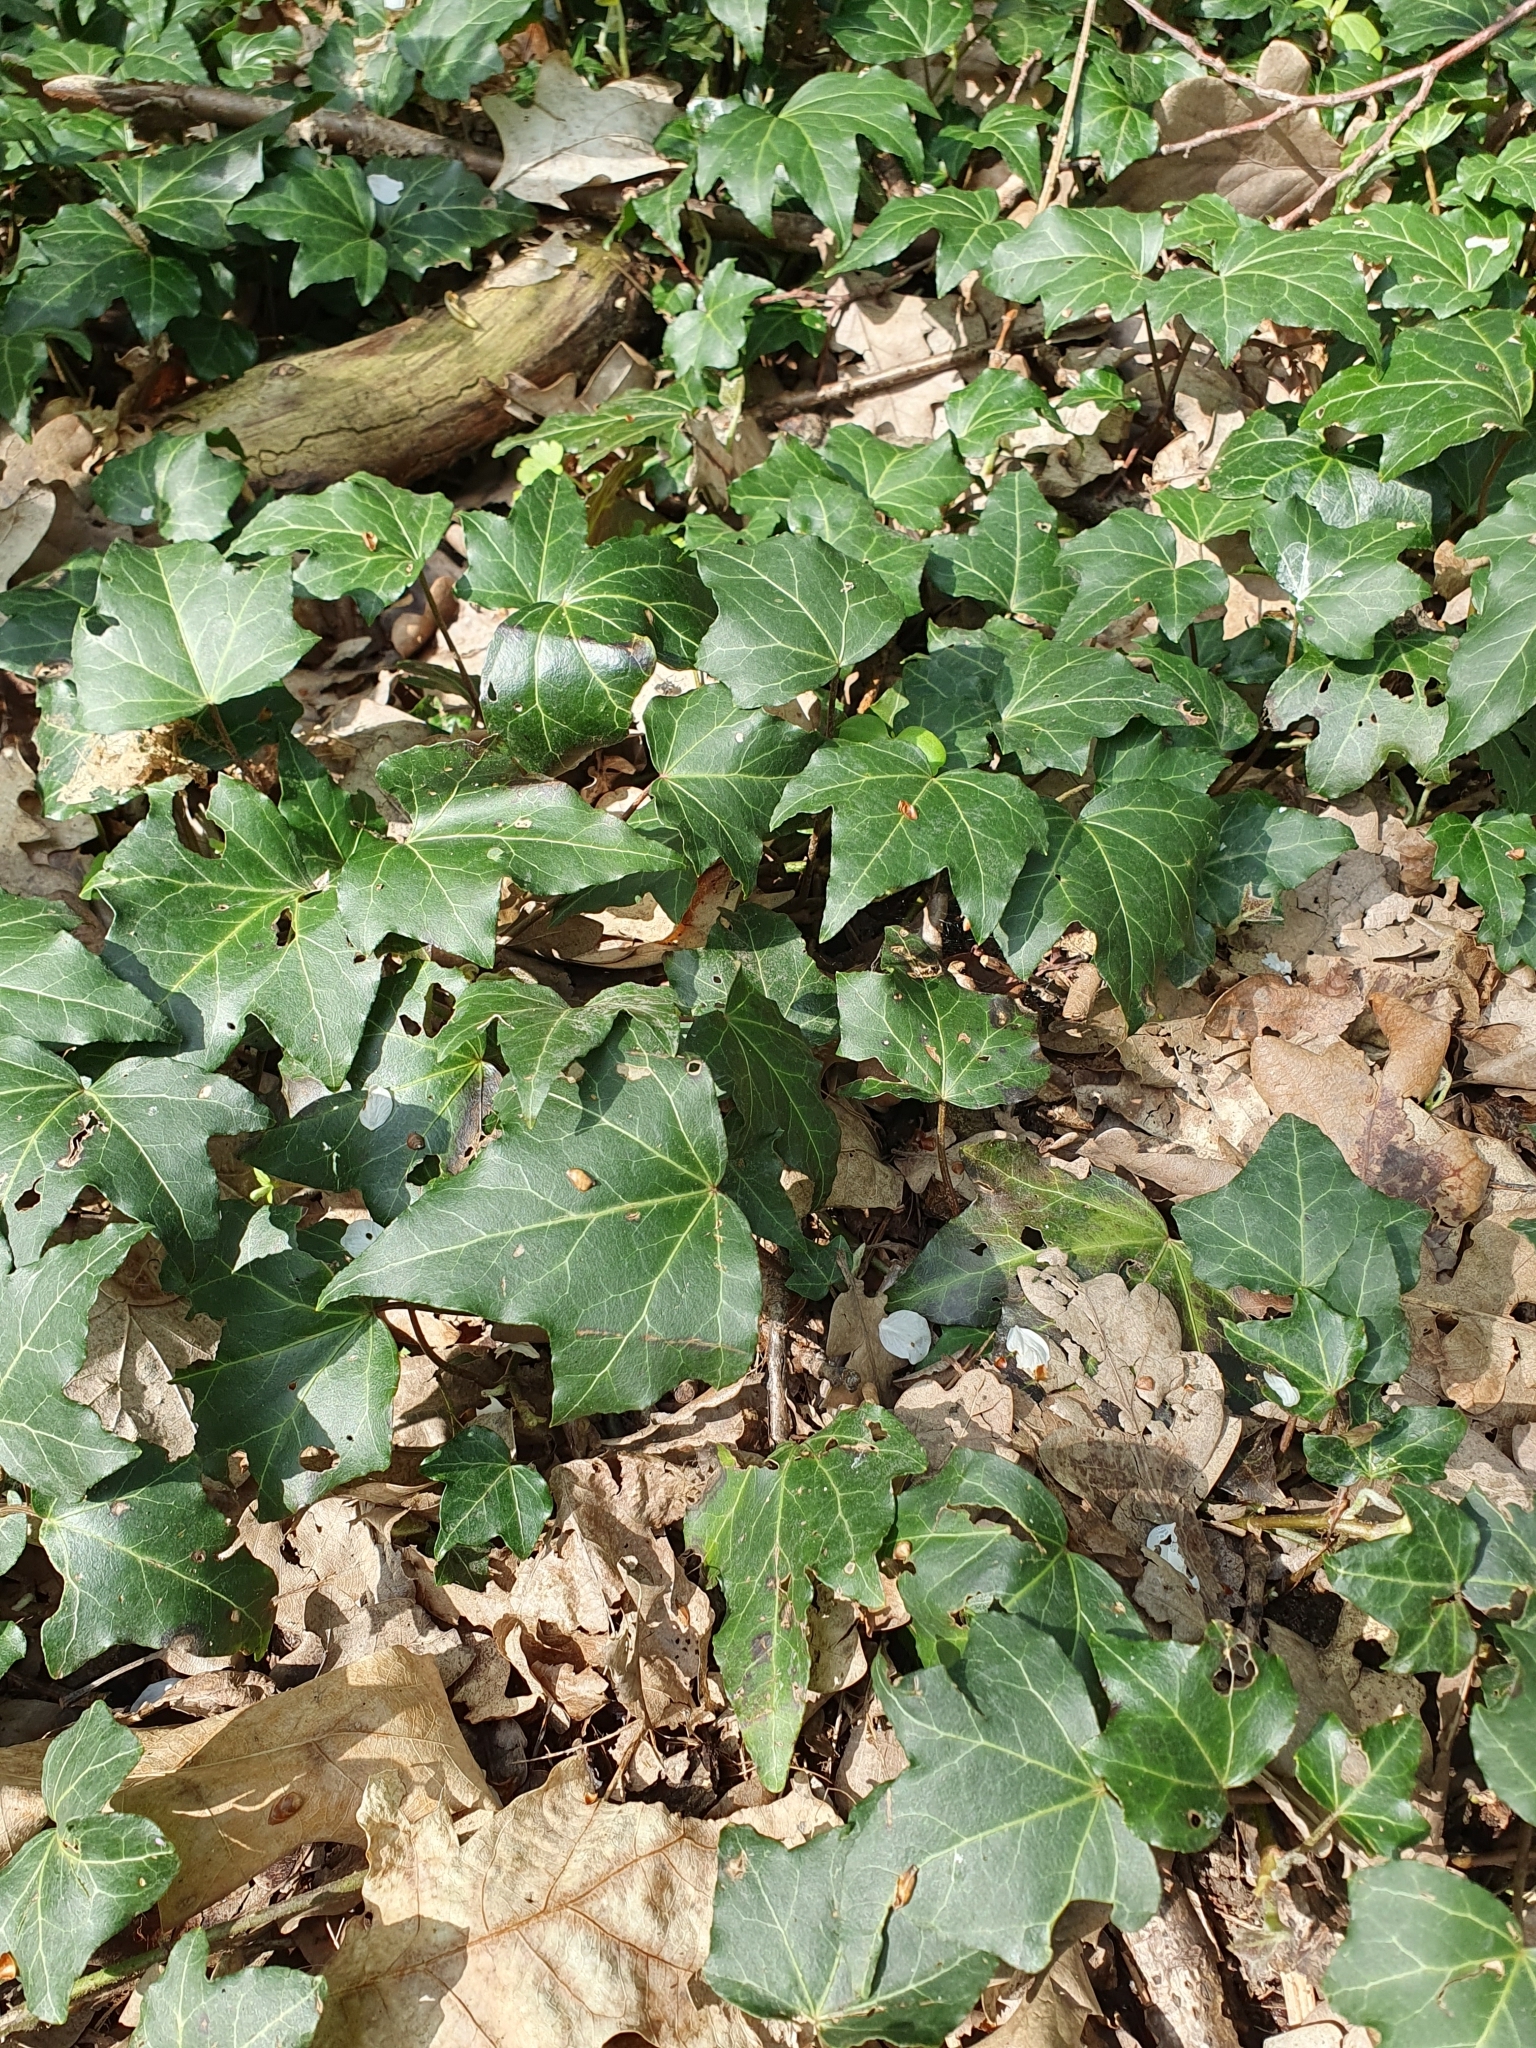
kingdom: Plantae
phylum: Tracheophyta
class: Magnoliopsida
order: Apiales
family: Araliaceae
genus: Hedera
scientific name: Hedera helix
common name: Ivy
